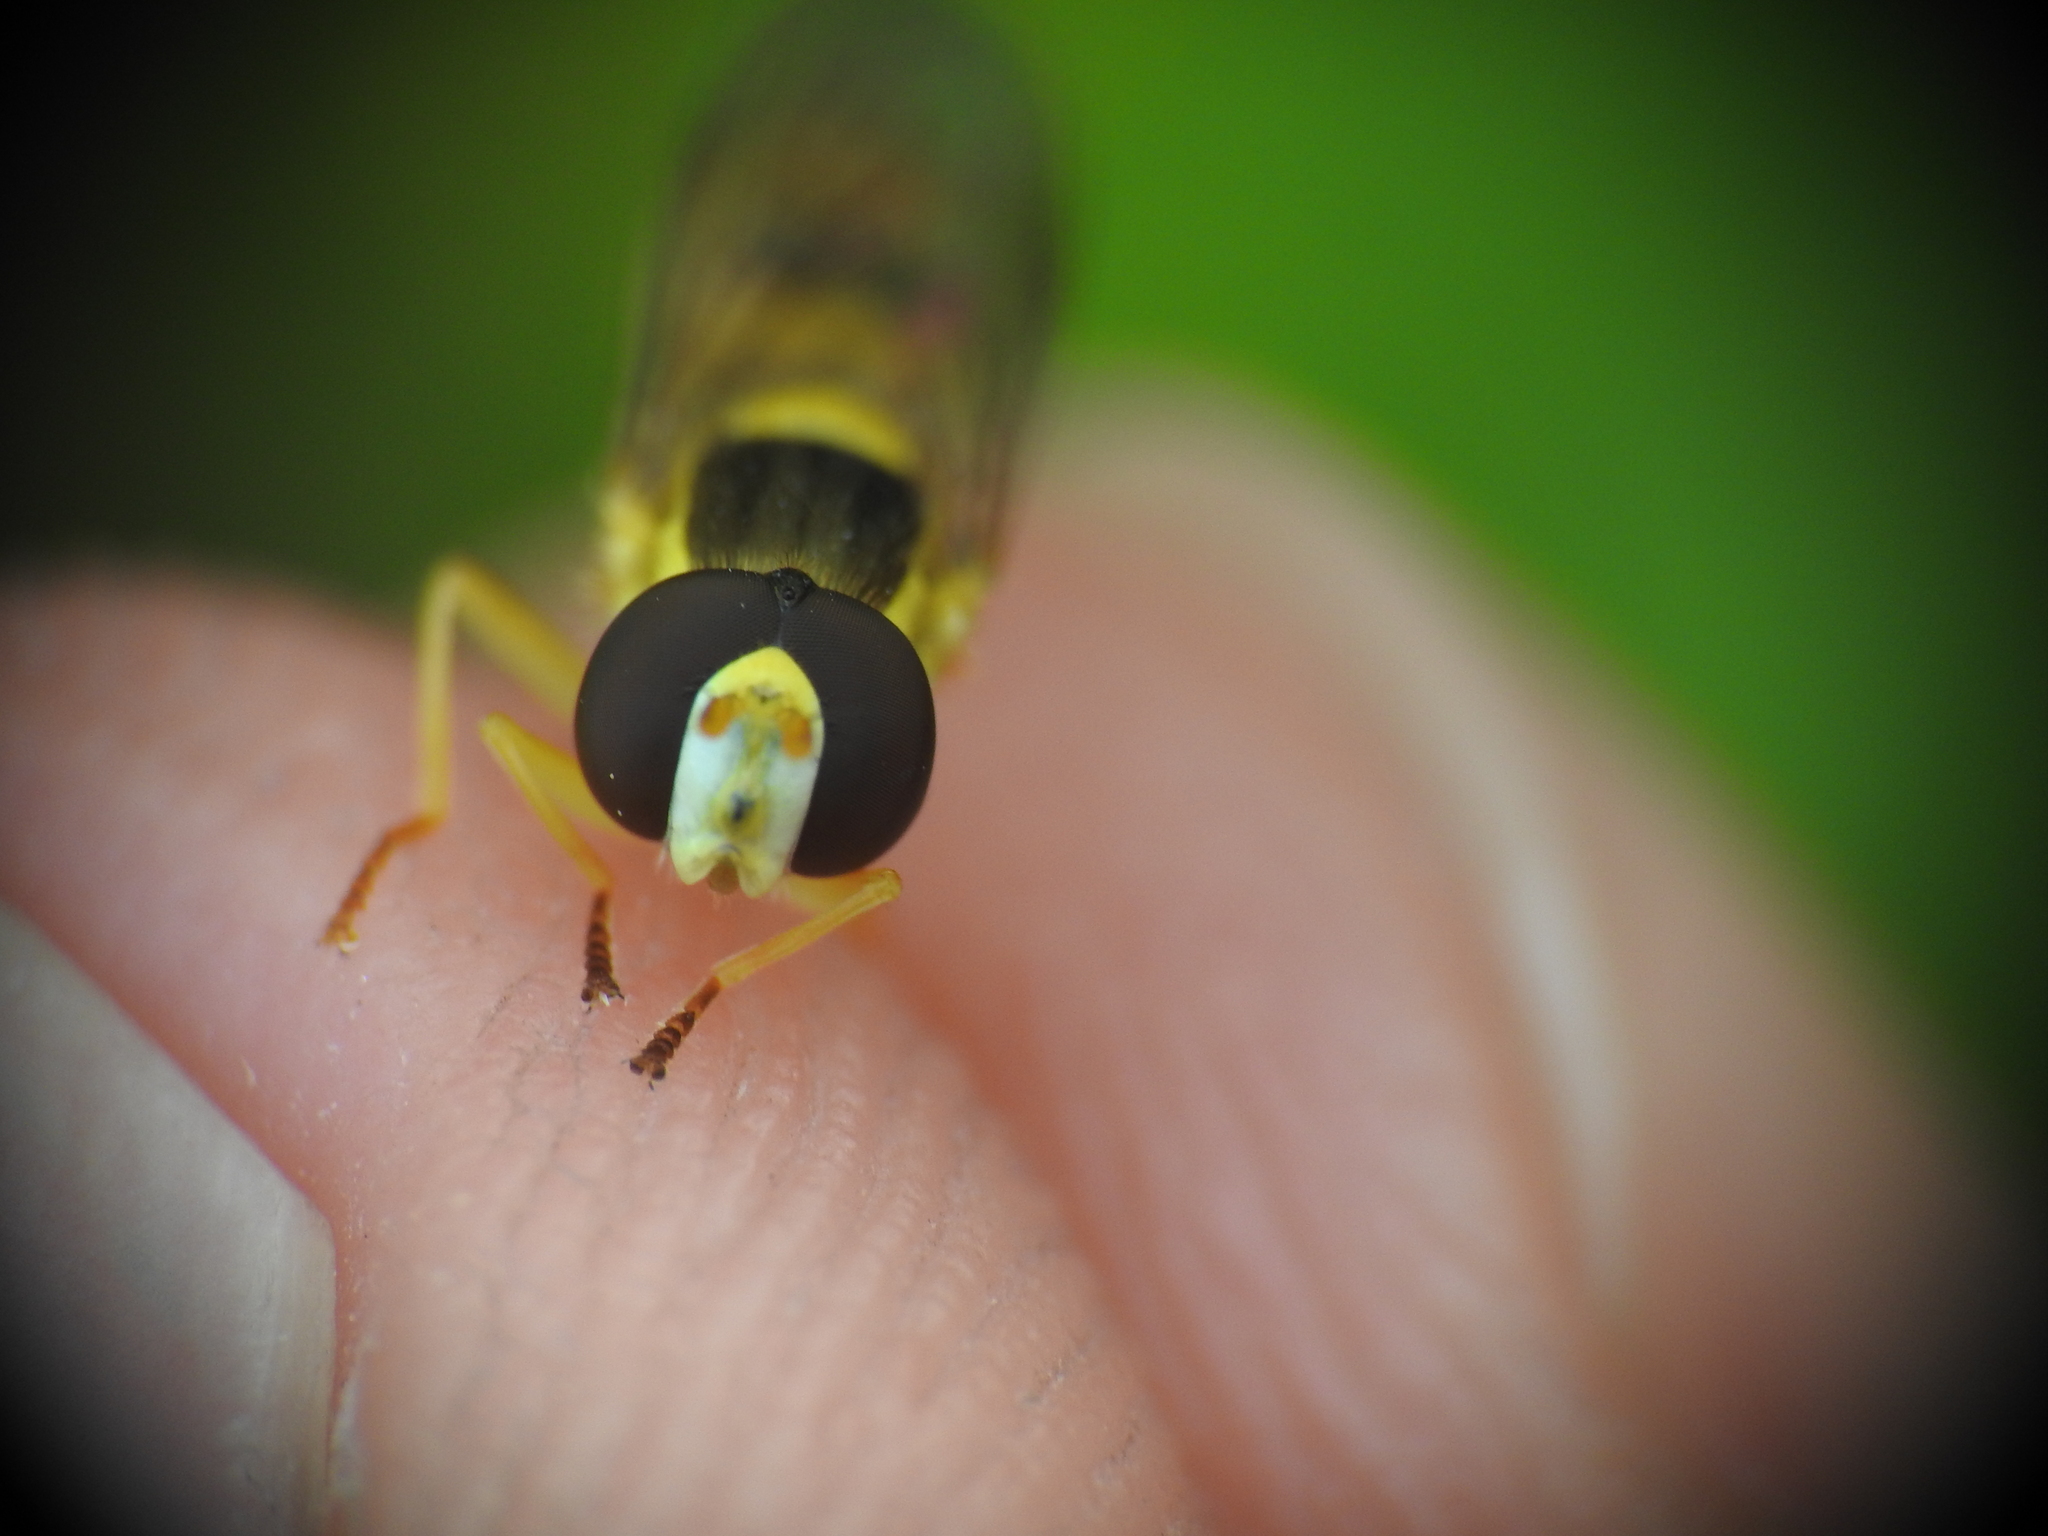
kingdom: Animalia
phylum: Arthropoda
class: Insecta
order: Diptera
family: Syrphidae
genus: Sphaerophoria
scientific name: Sphaerophoria scripta
